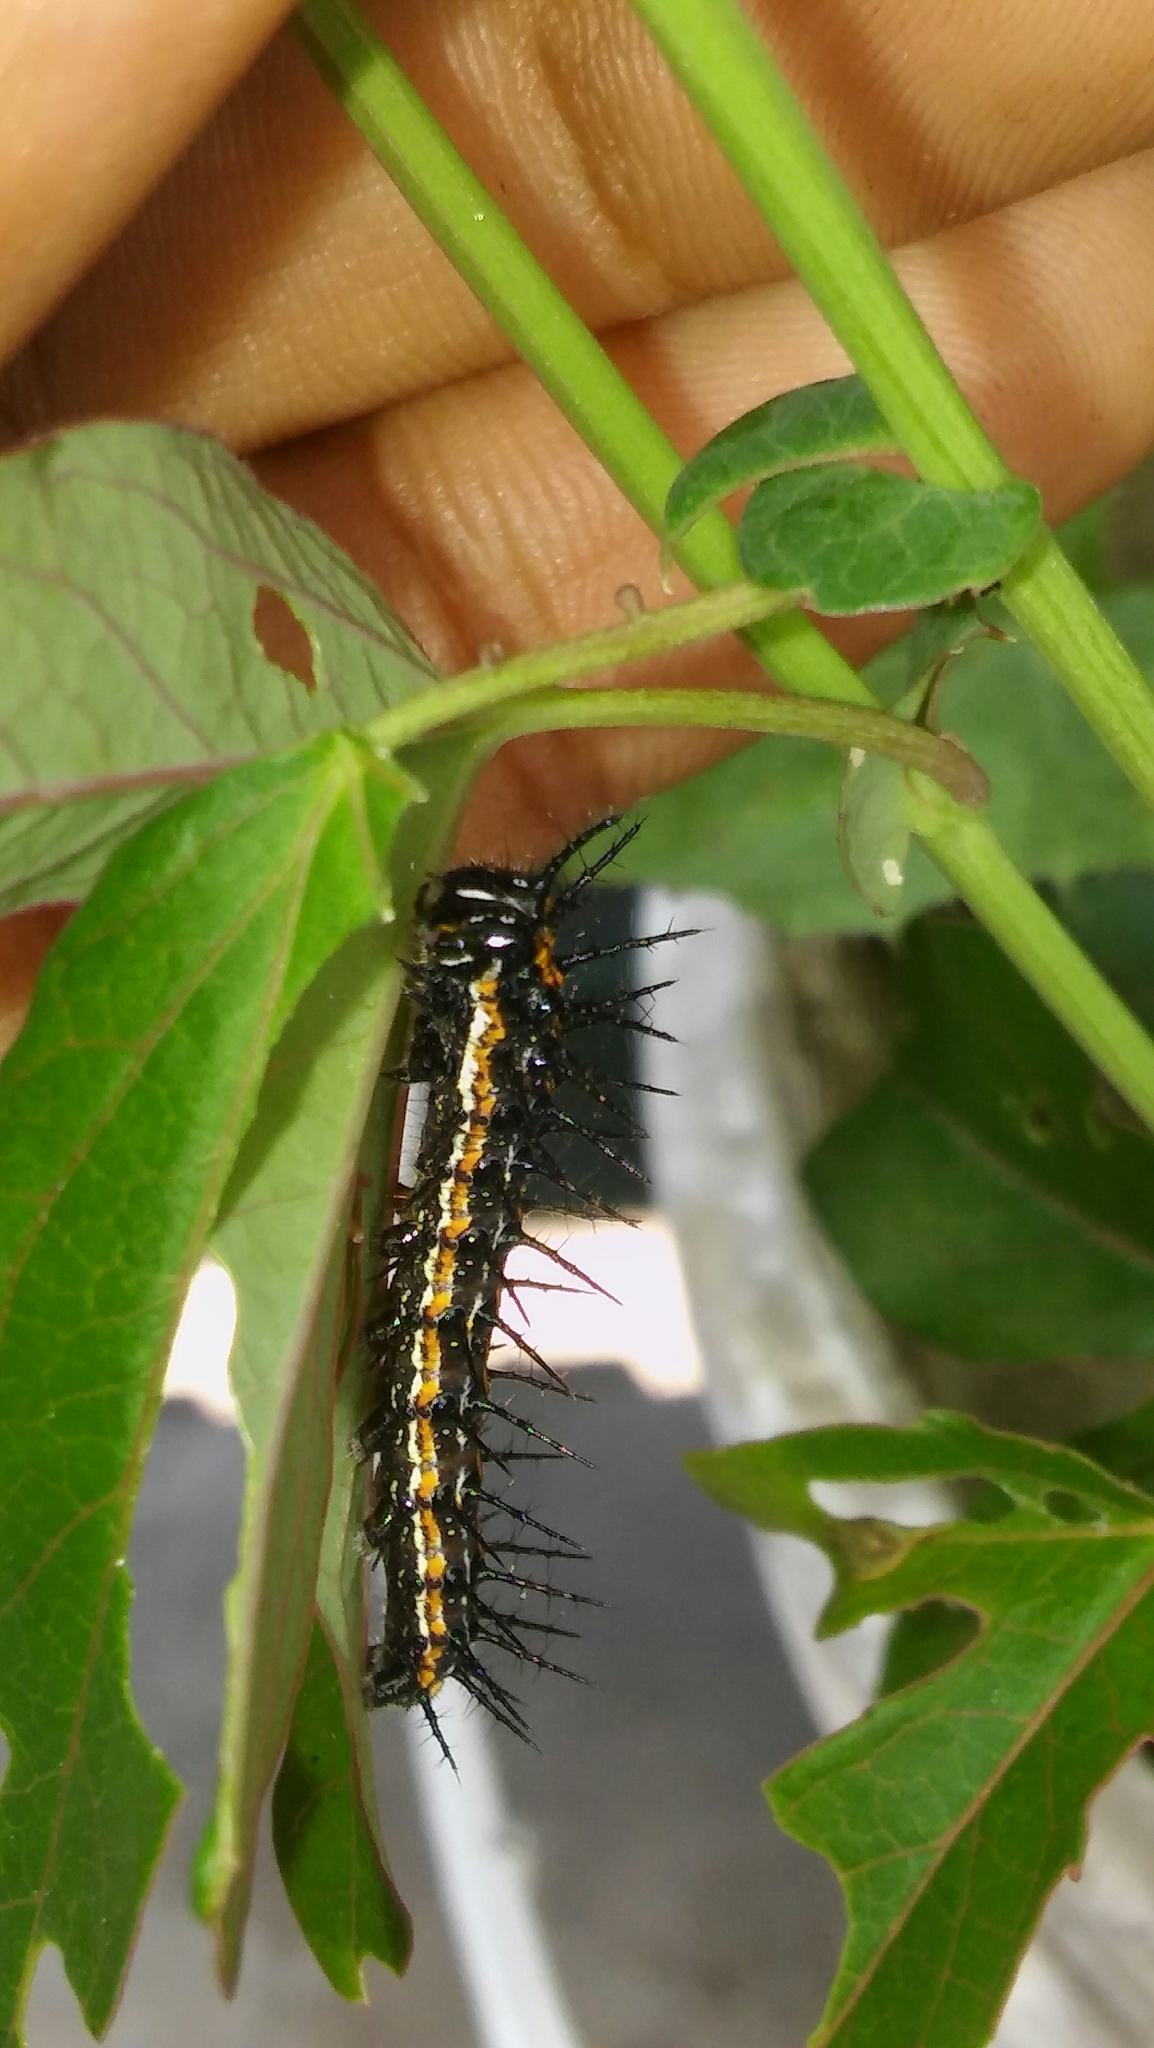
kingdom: Animalia
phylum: Arthropoda
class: Insecta
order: Lepidoptera
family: Nymphalidae
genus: Dione
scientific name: Dione vanillae
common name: Gulf fritillary
